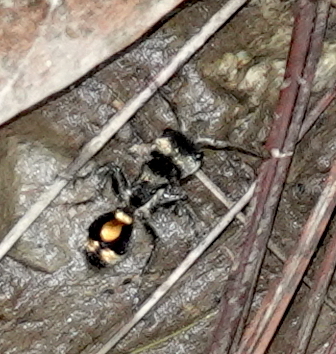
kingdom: Animalia
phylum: Arthropoda
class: Insecta
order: Hymenoptera
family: Mutillidae
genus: Hoplocrates
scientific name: Hoplocrates
